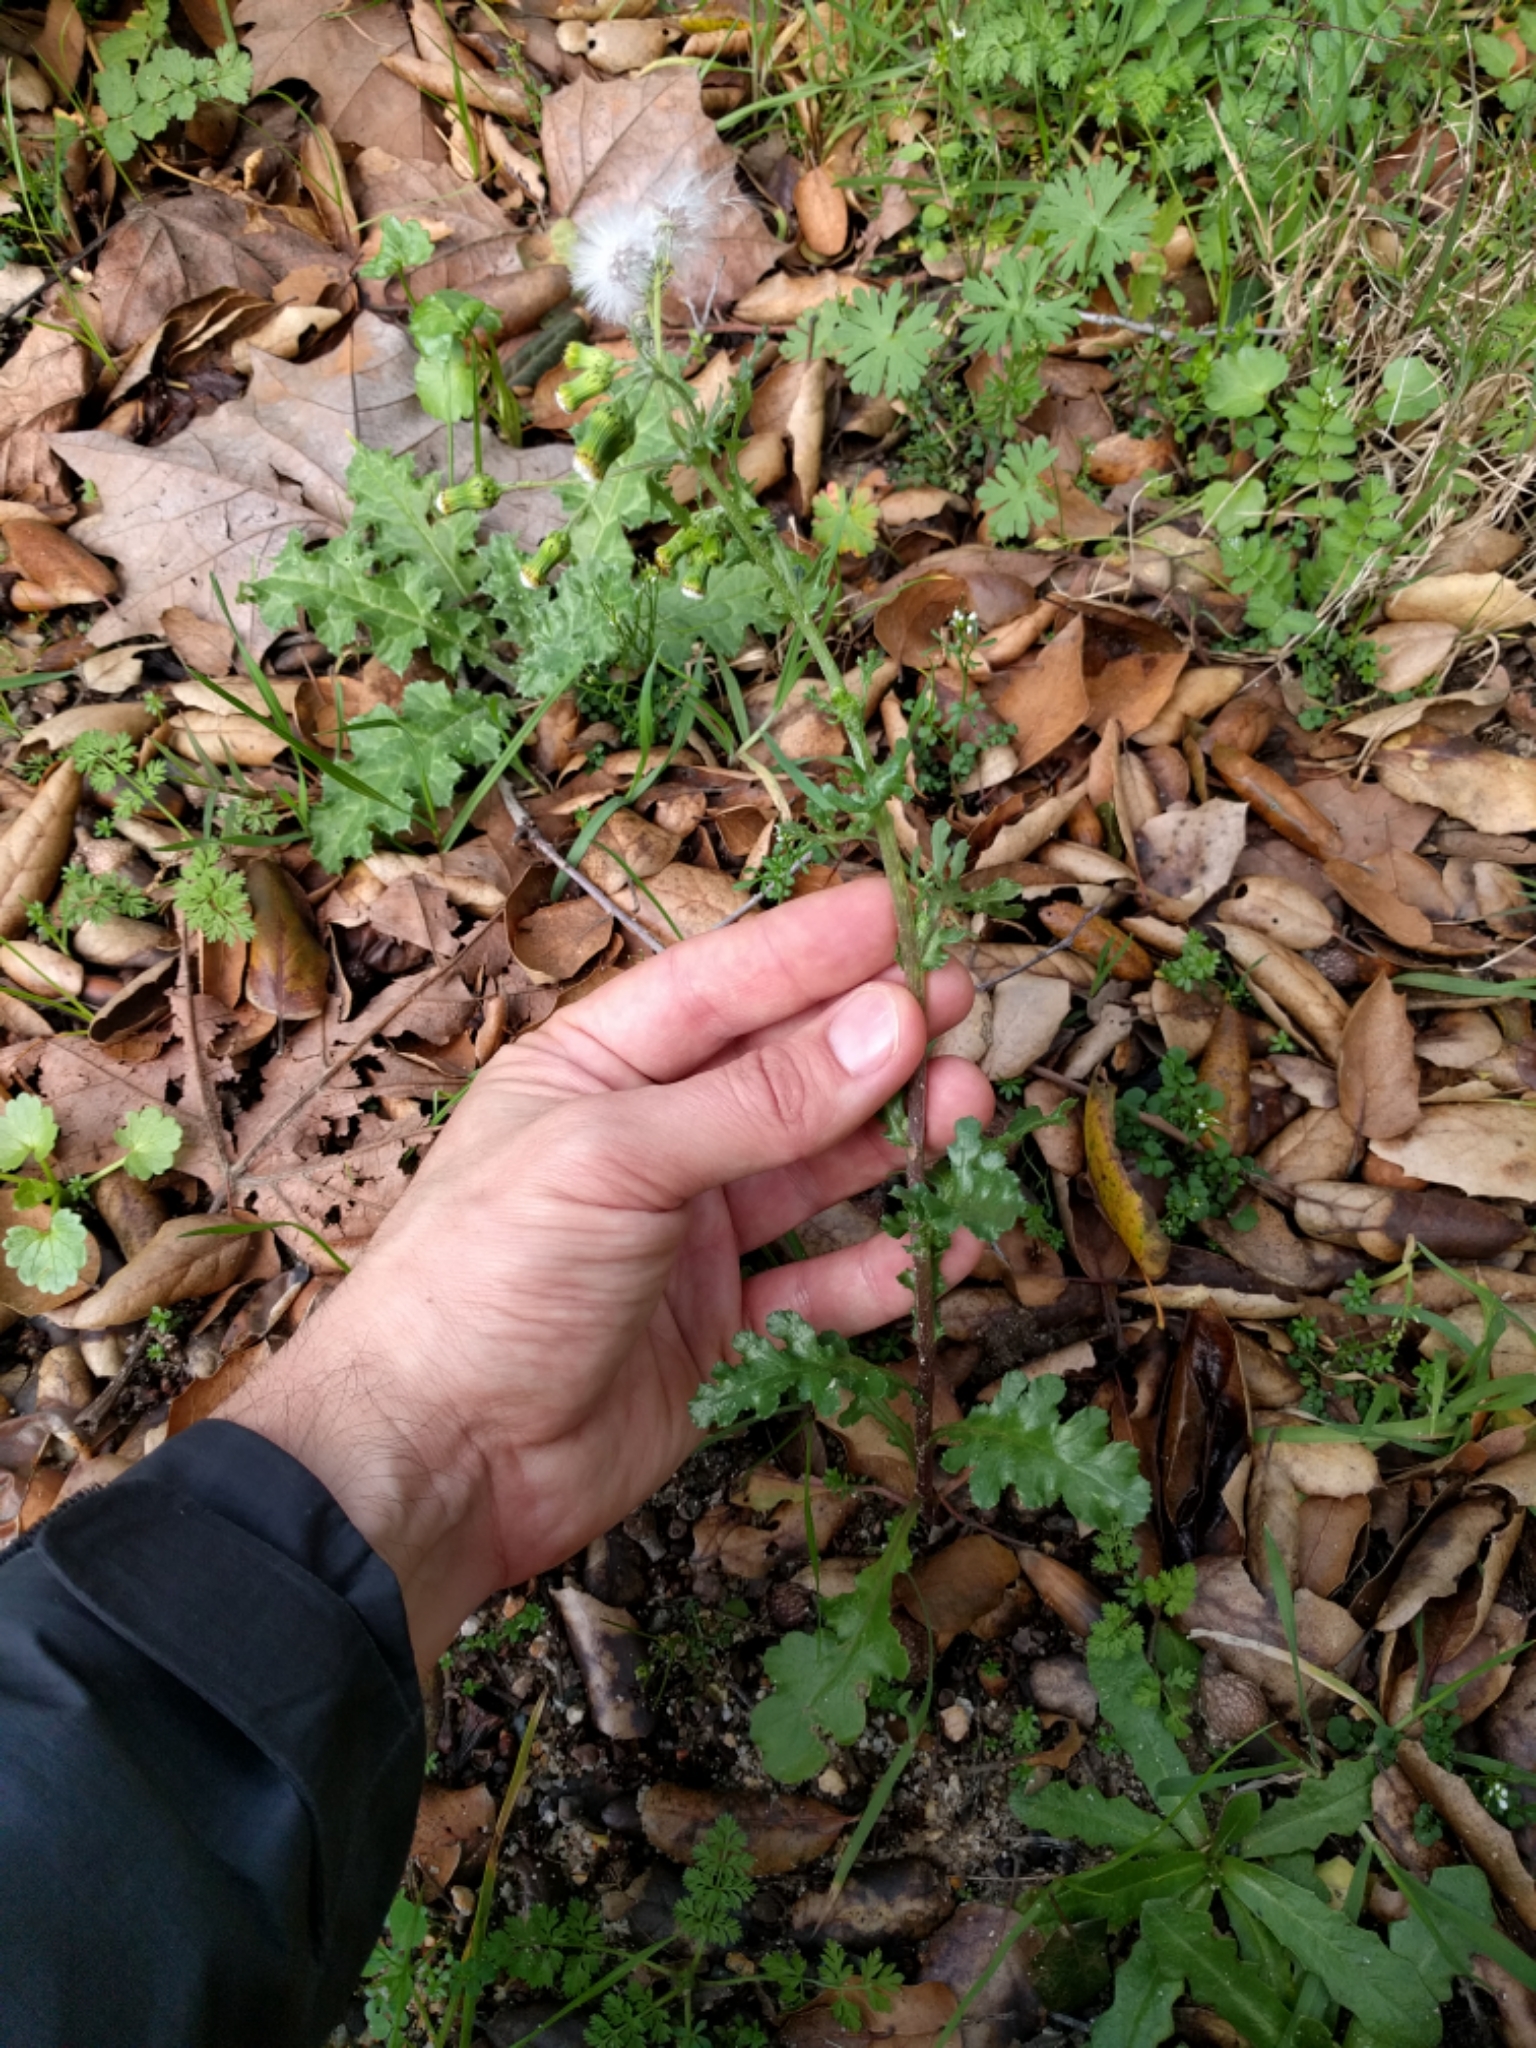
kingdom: Plantae
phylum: Tracheophyta
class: Magnoliopsida
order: Asterales
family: Asteraceae
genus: Senecio
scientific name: Senecio vulgaris
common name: Old-man-in-the-spring
